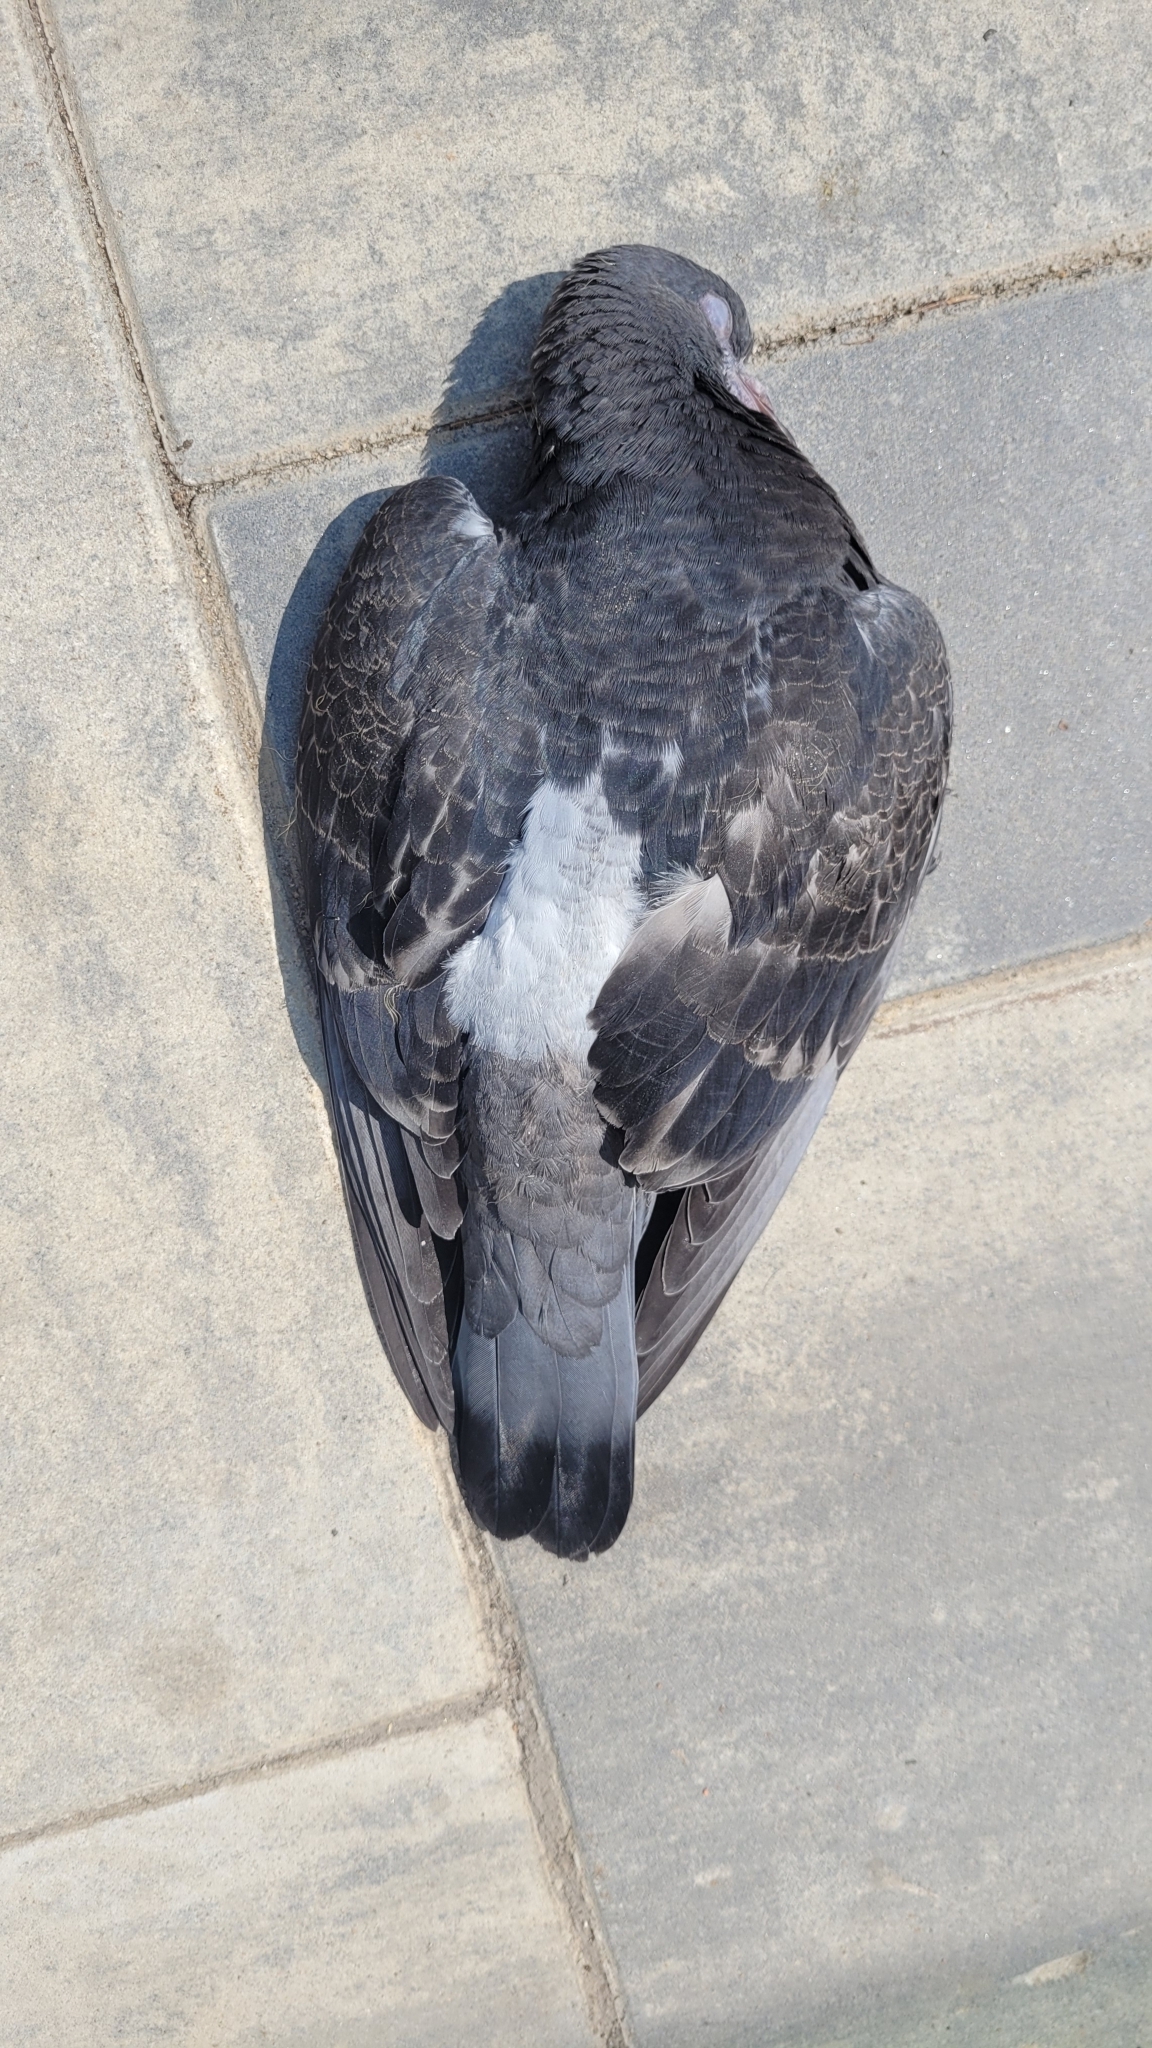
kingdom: Animalia
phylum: Chordata
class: Aves
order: Columbiformes
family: Columbidae
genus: Columba
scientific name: Columba livia
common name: Rock pigeon
